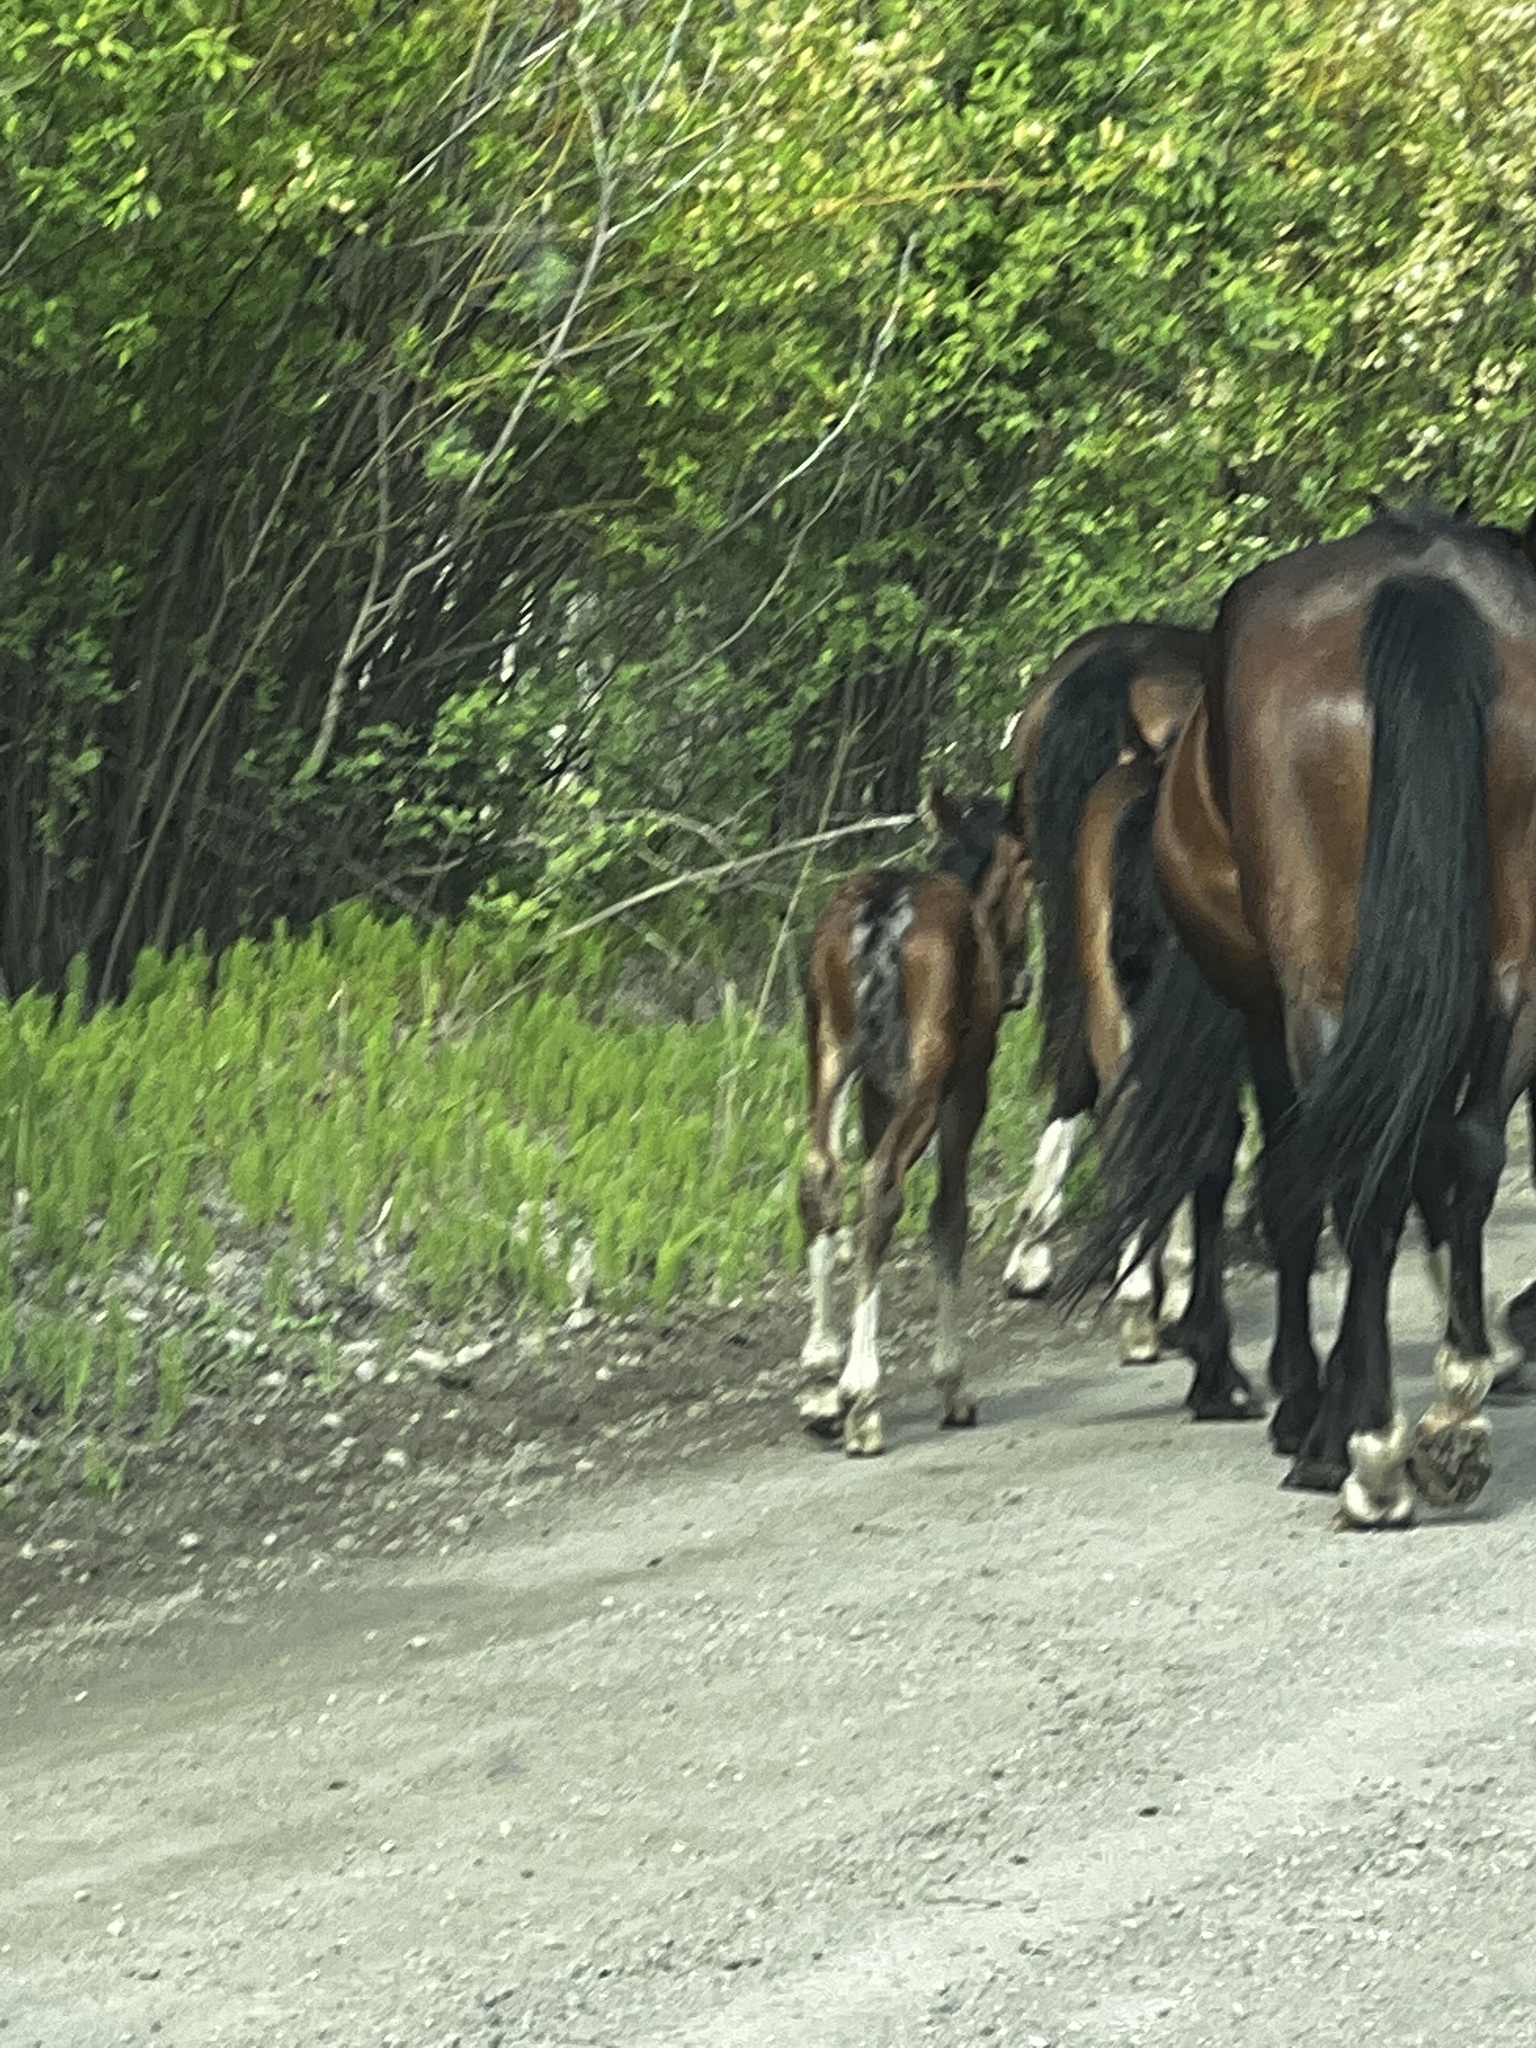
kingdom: Animalia
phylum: Chordata
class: Mammalia
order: Perissodactyla
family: Equidae
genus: Equus
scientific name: Equus caballus
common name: Horse
